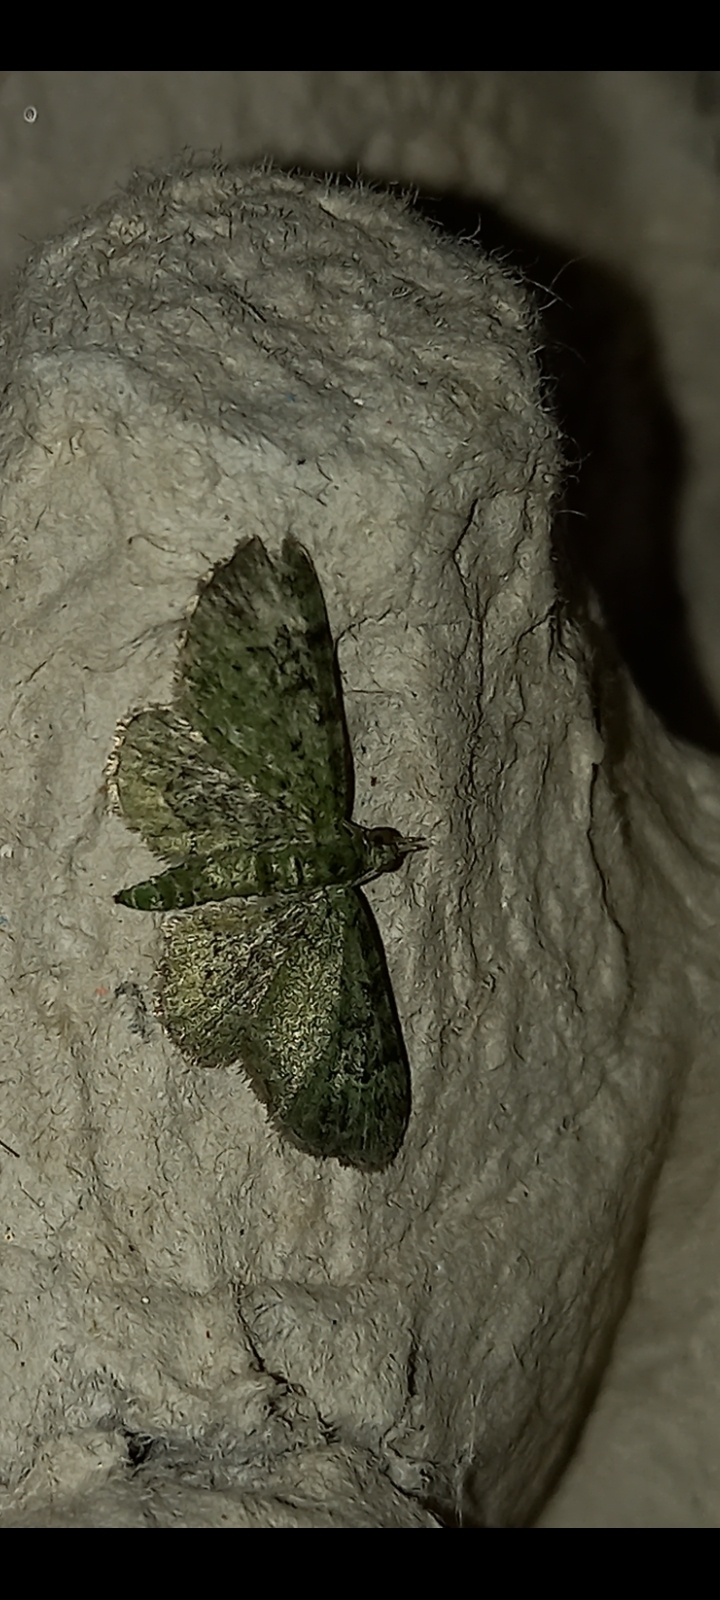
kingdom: Animalia
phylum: Arthropoda
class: Insecta
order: Lepidoptera
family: Geometridae
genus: Pasiphila
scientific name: Pasiphila rectangulata
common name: Green pug
